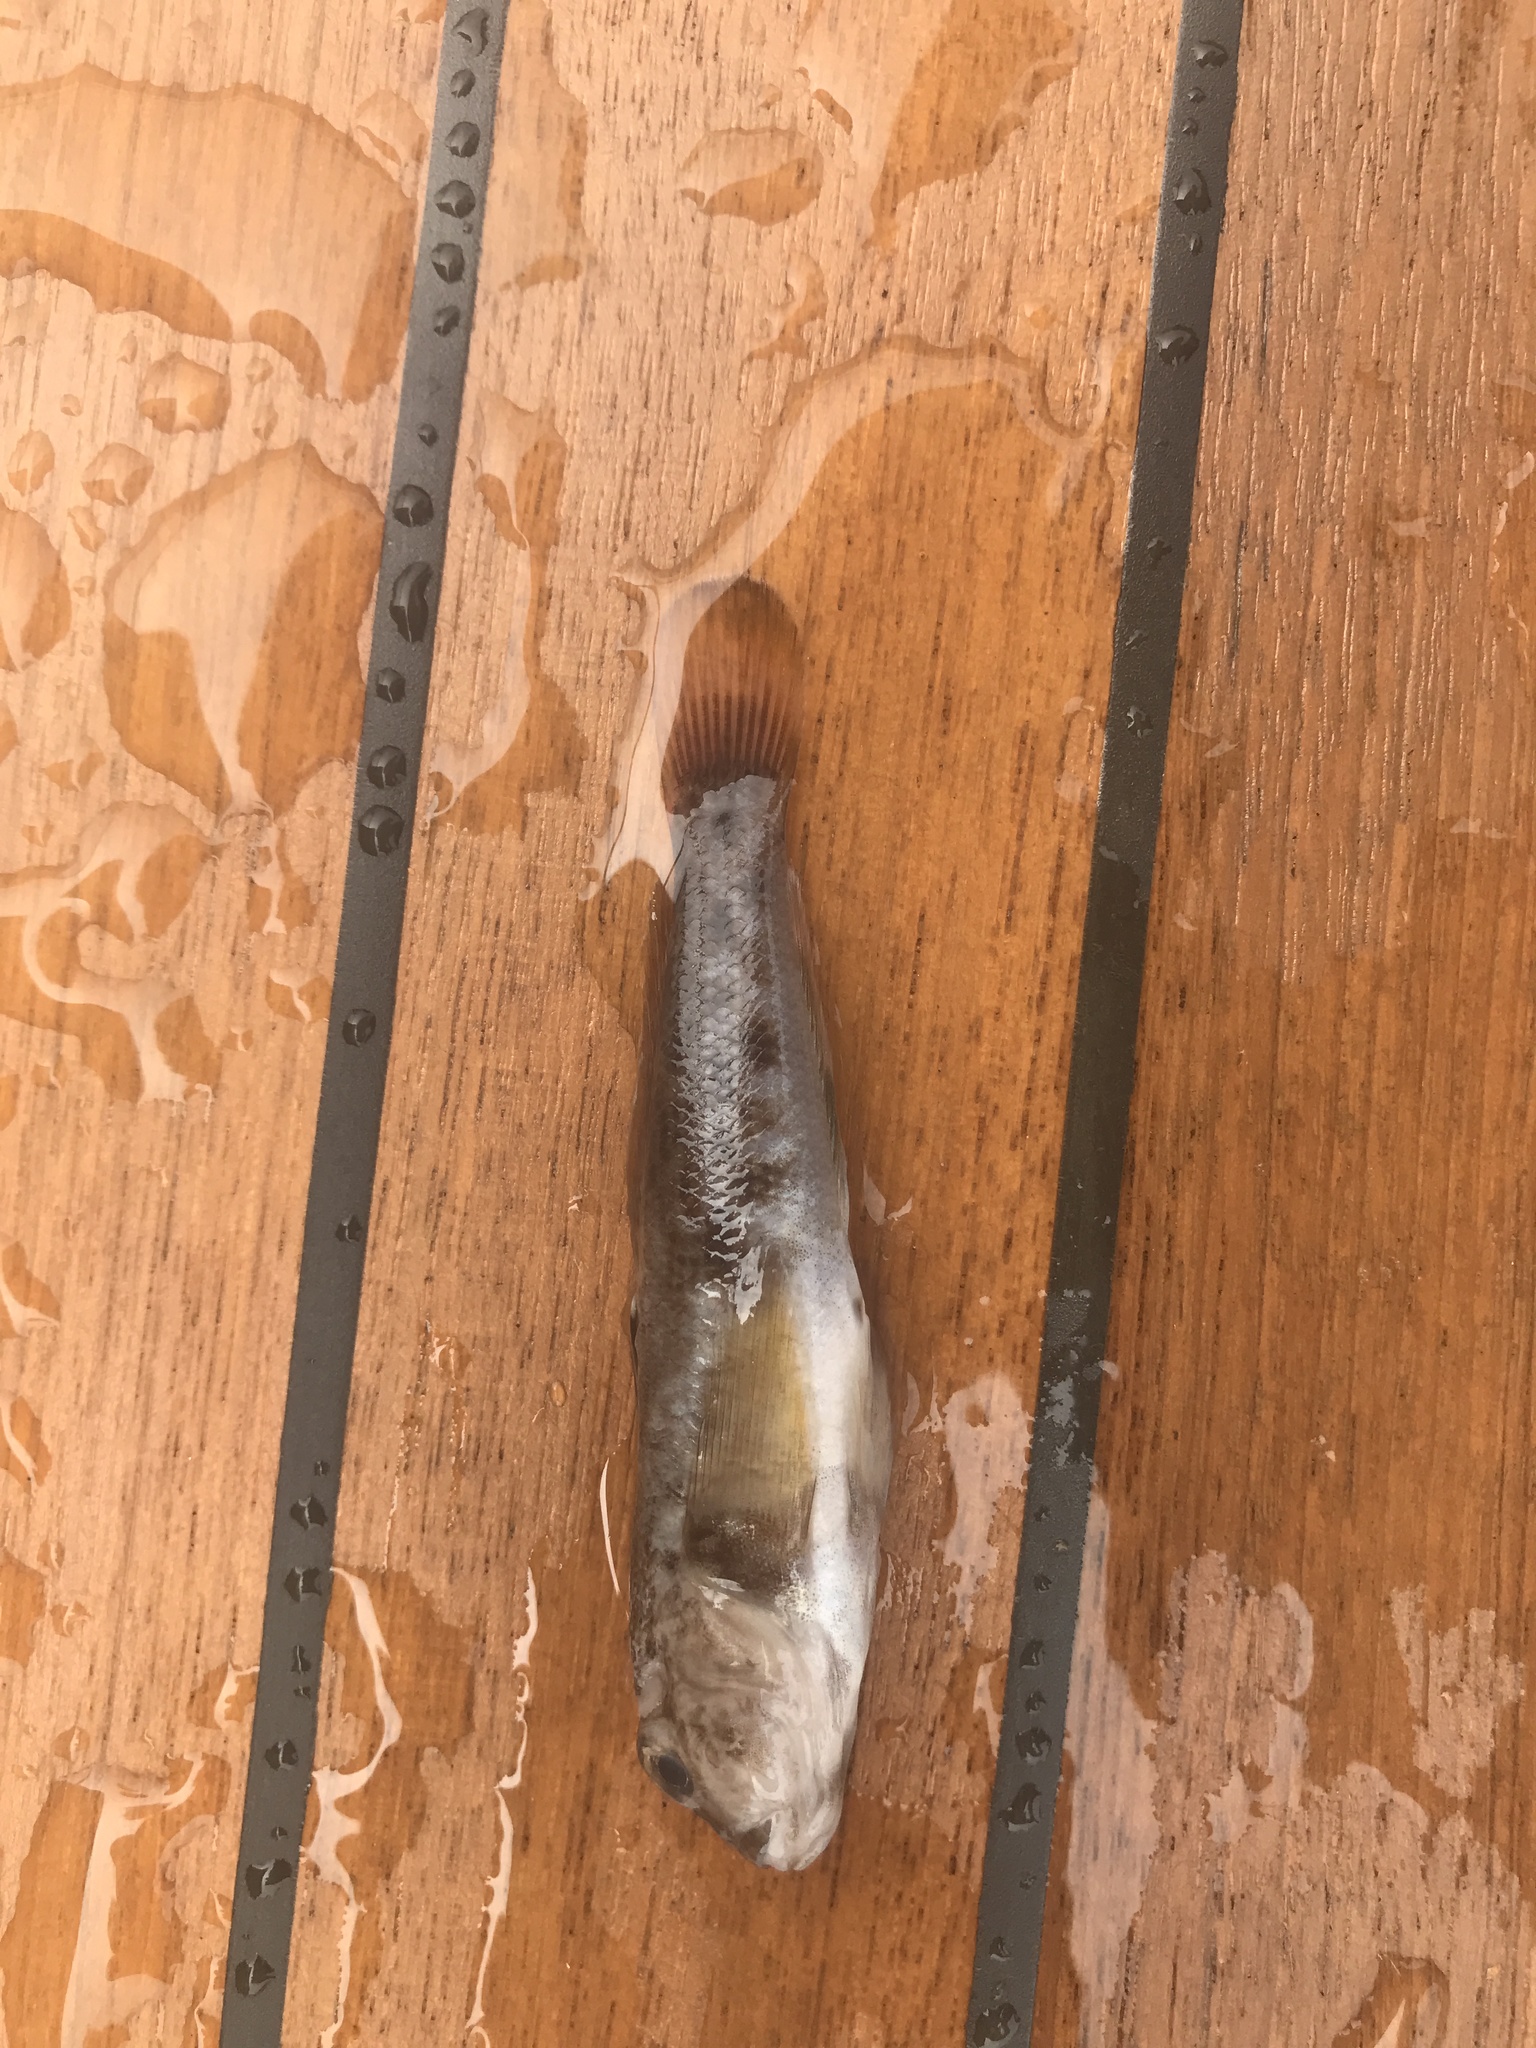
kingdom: Animalia
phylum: Chordata
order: Perciformes
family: Gobiidae
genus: Neogobius
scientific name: Neogobius melanostomus
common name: Round goby
